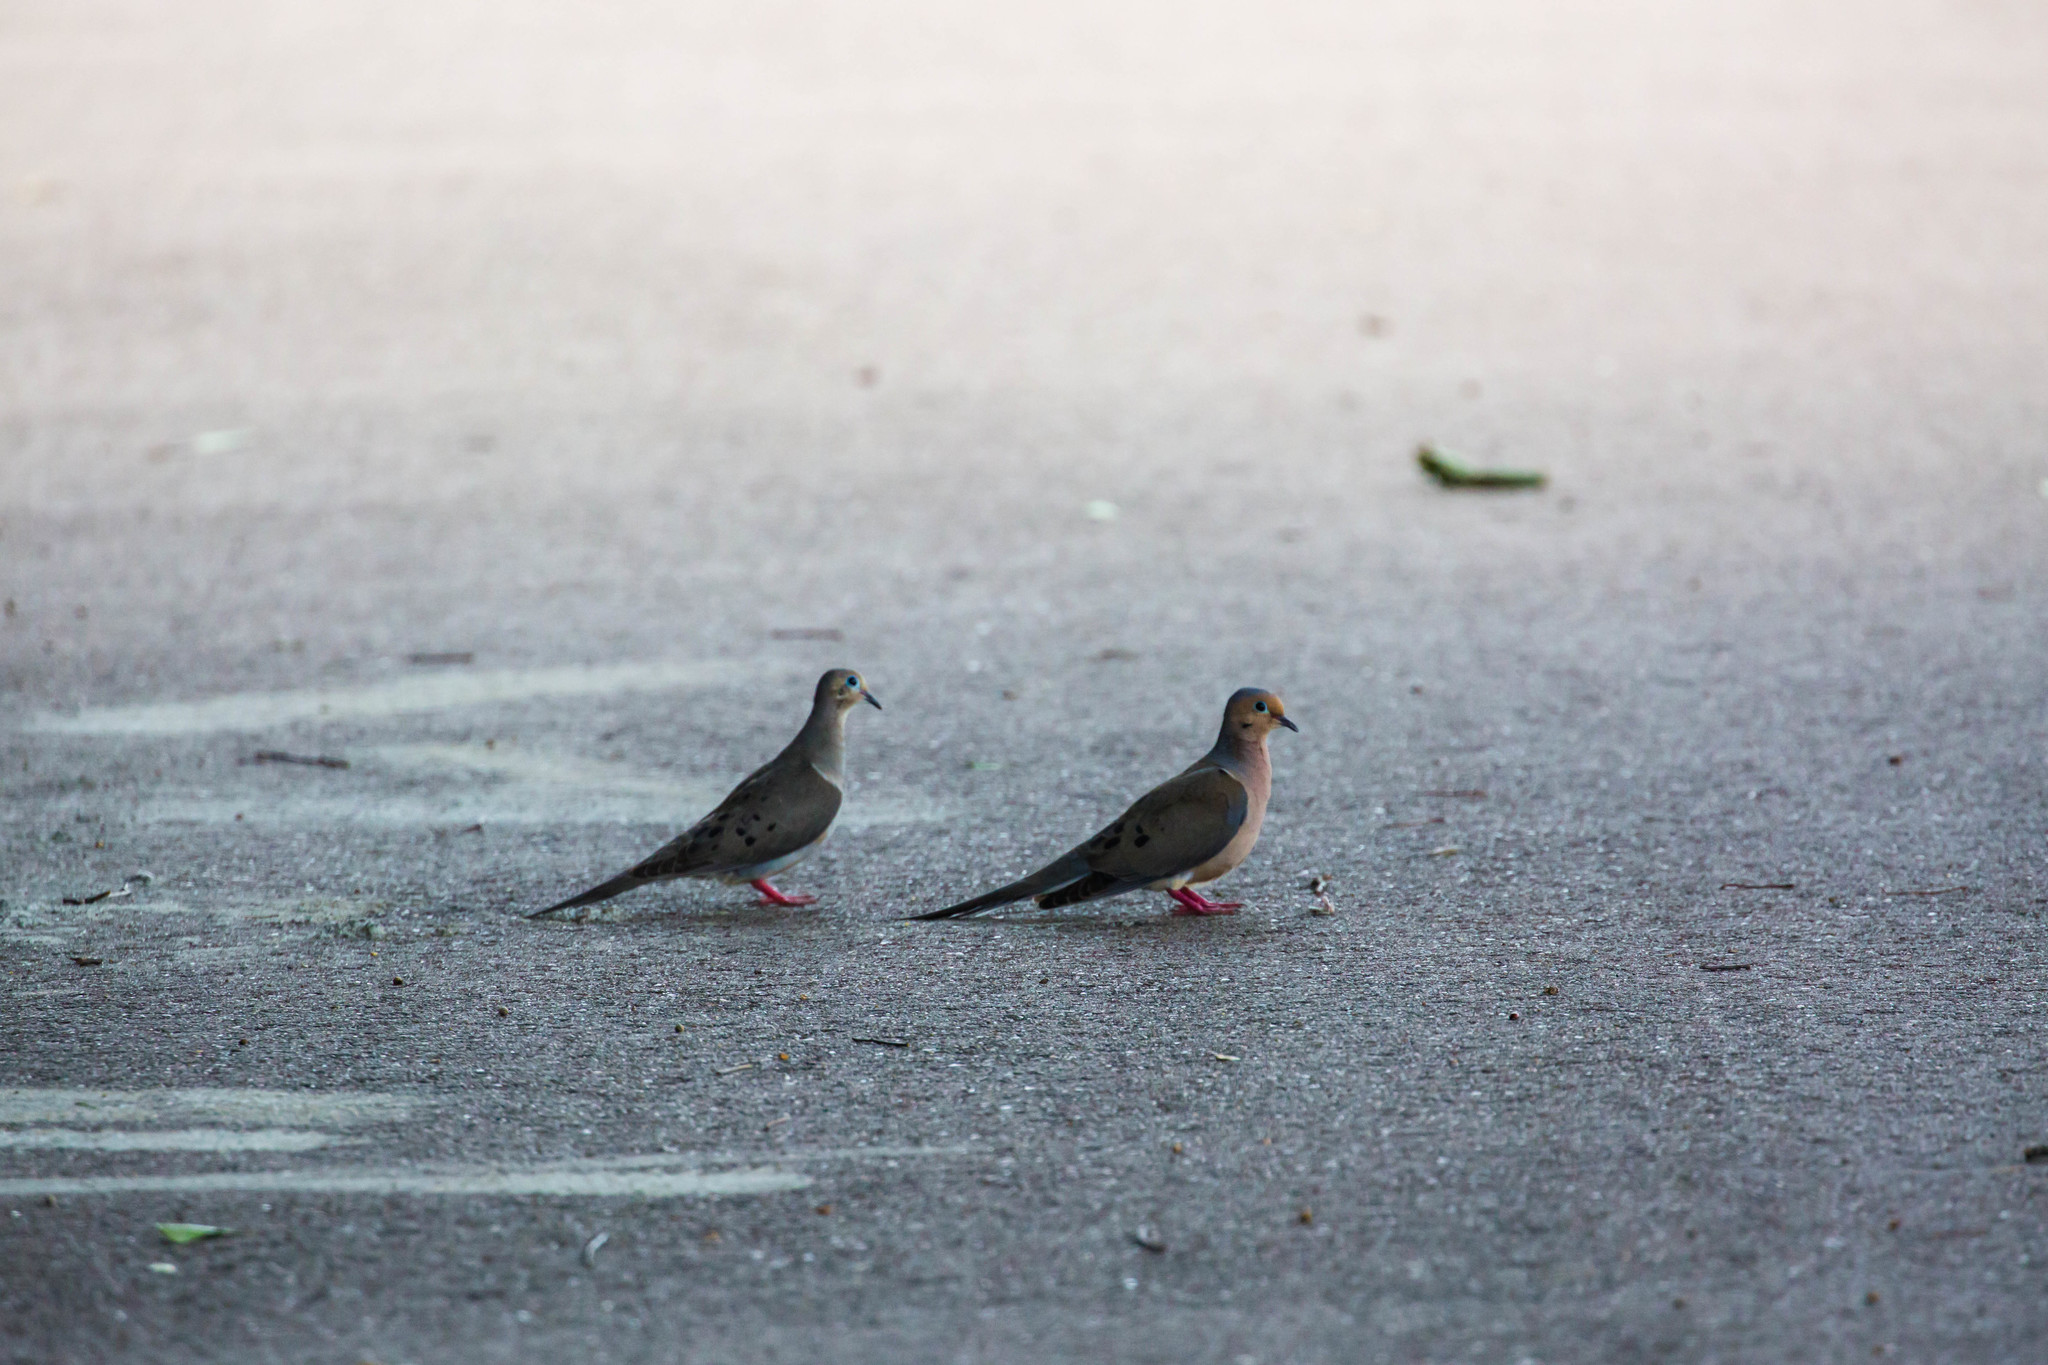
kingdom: Animalia
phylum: Chordata
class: Aves
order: Columbiformes
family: Columbidae
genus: Zenaida
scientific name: Zenaida macroura
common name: Mourning dove
